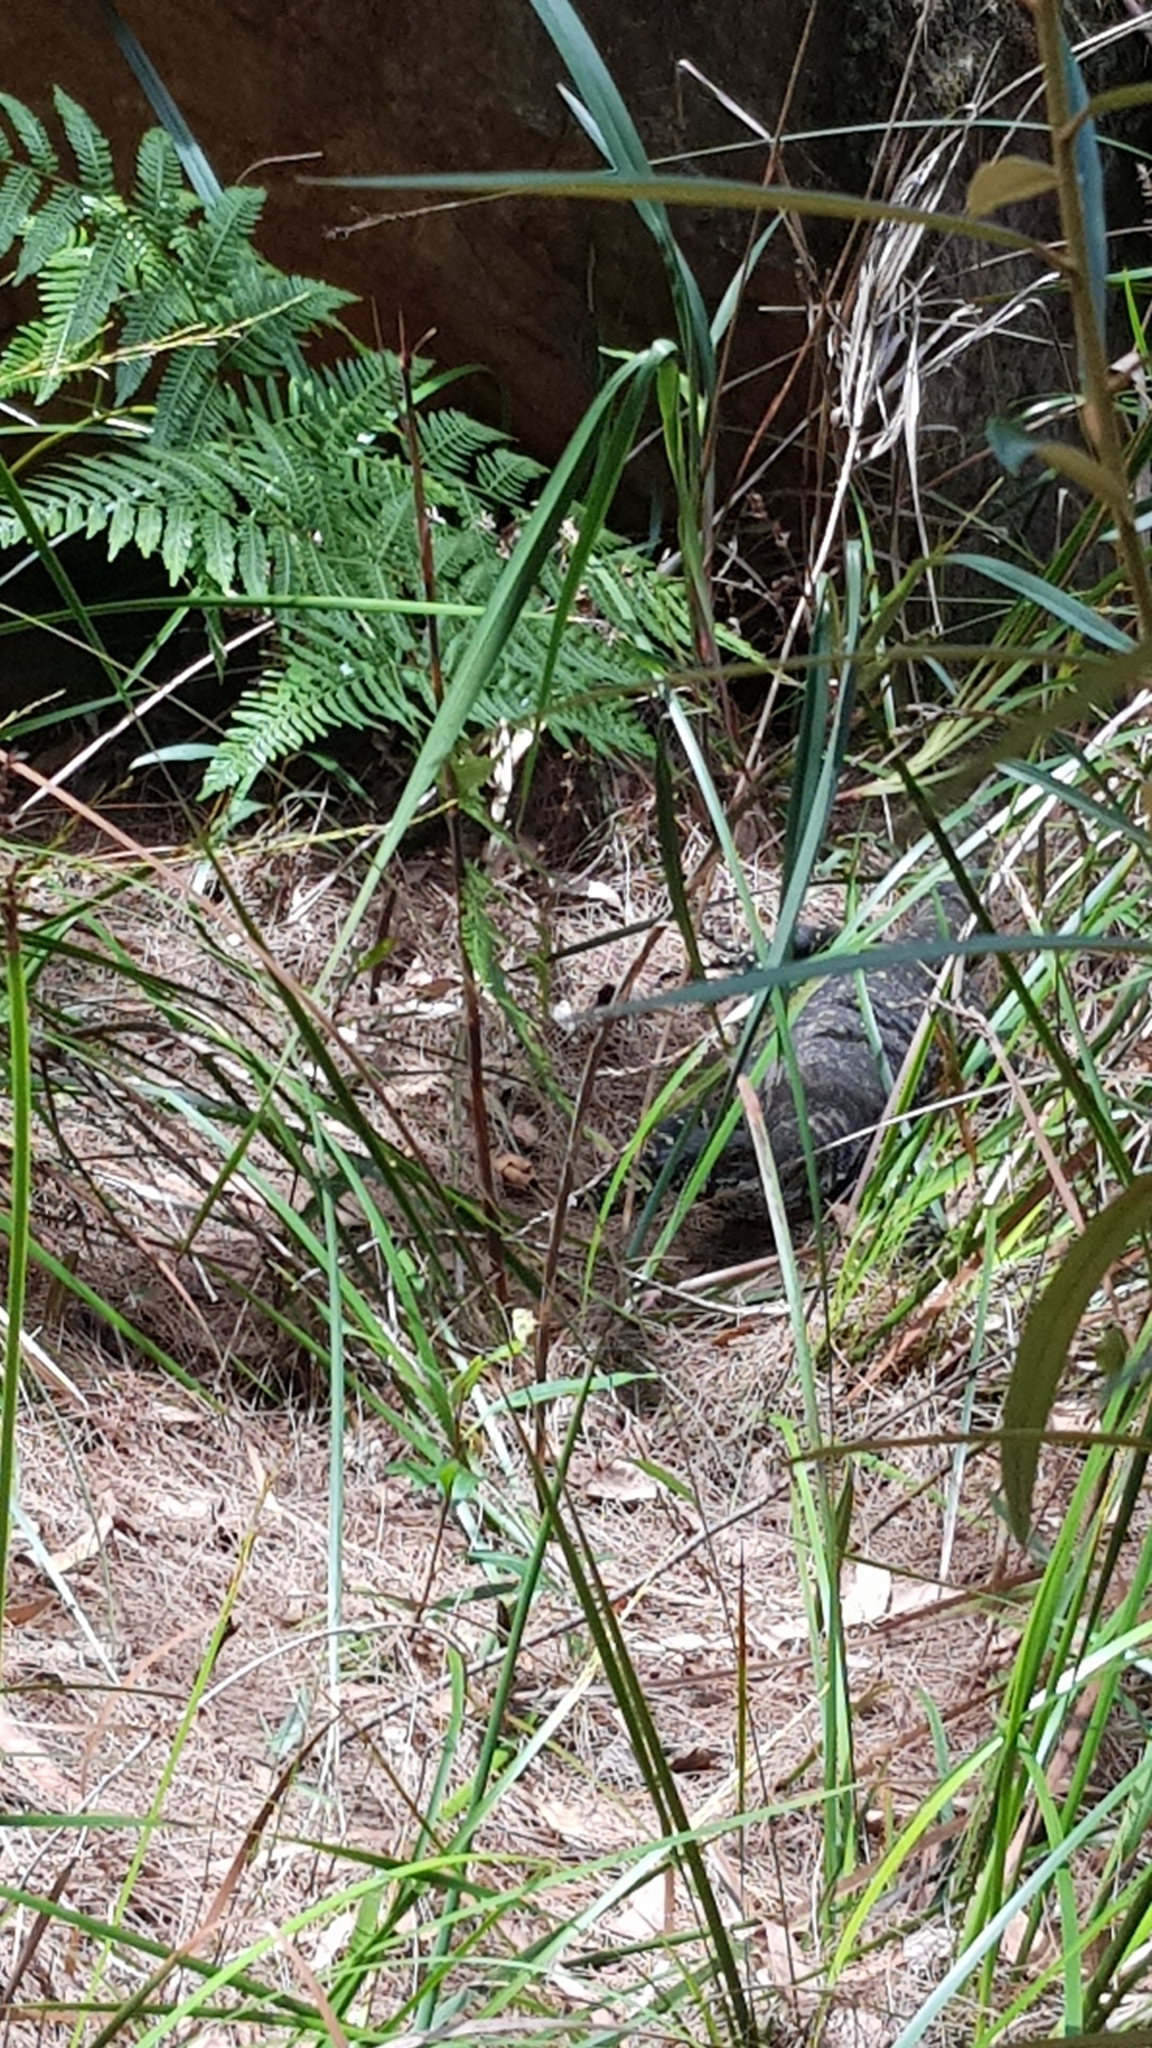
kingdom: Animalia
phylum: Chordata
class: Squamata
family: Varanidae
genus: Varanus
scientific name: Varanus varius
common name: Lace monitor
